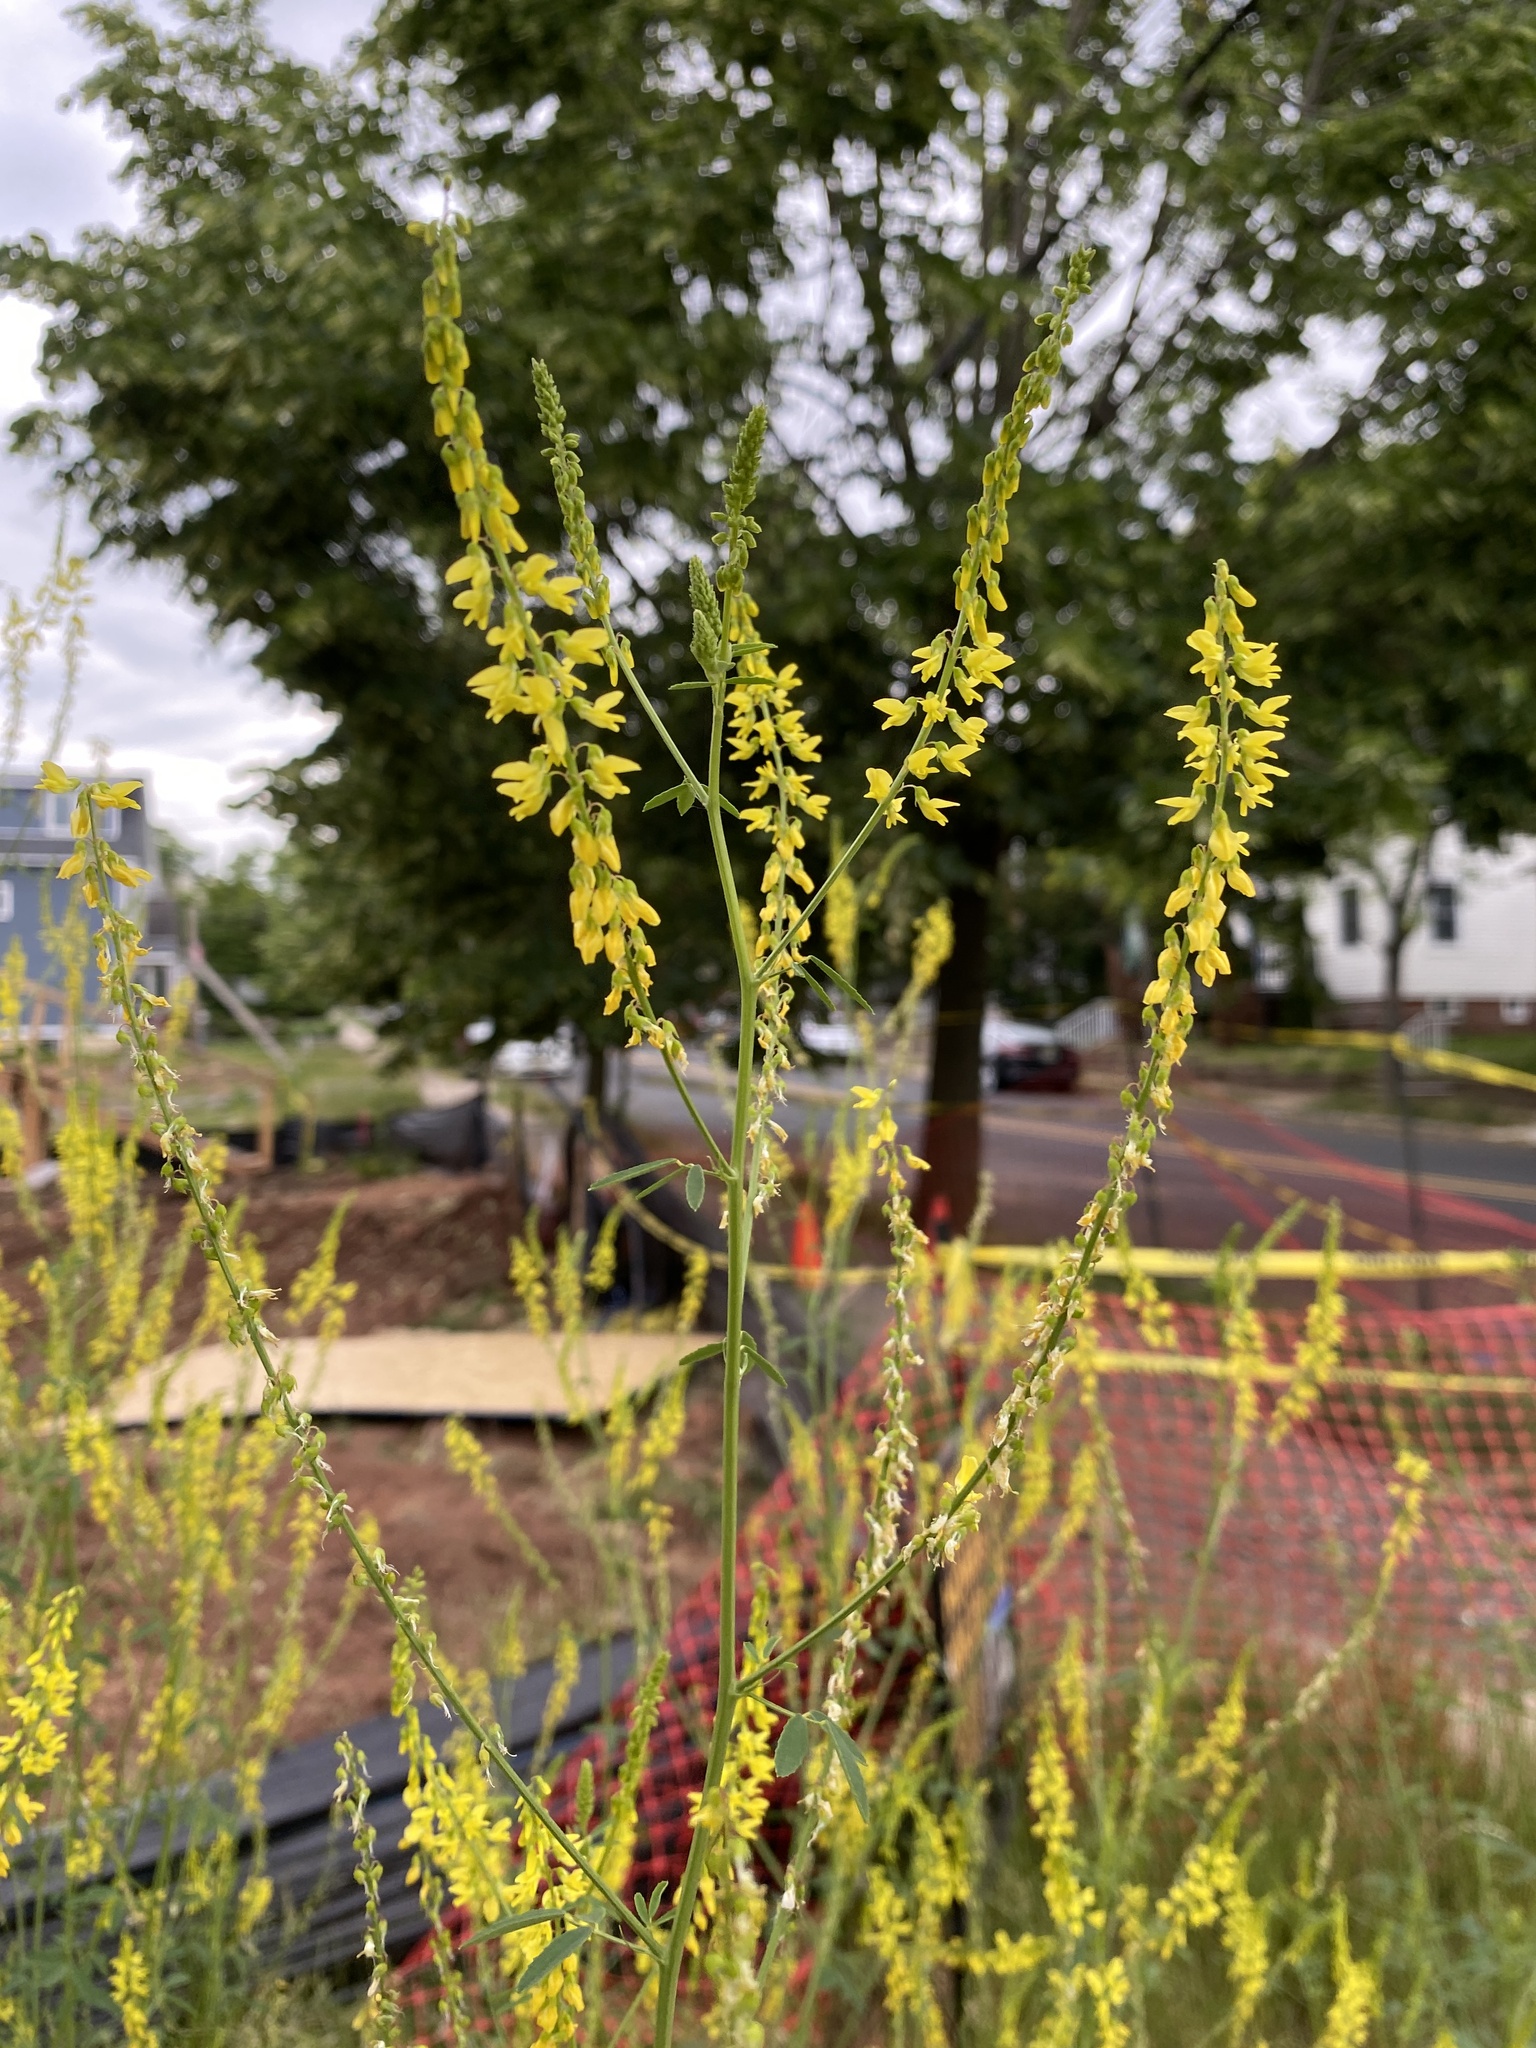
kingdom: Plantae
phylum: Tracheophyta
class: Magnoliopsida
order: Fabales
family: Fabaceae
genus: Melilotus
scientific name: Melilotus officinalis
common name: Sweetclover
